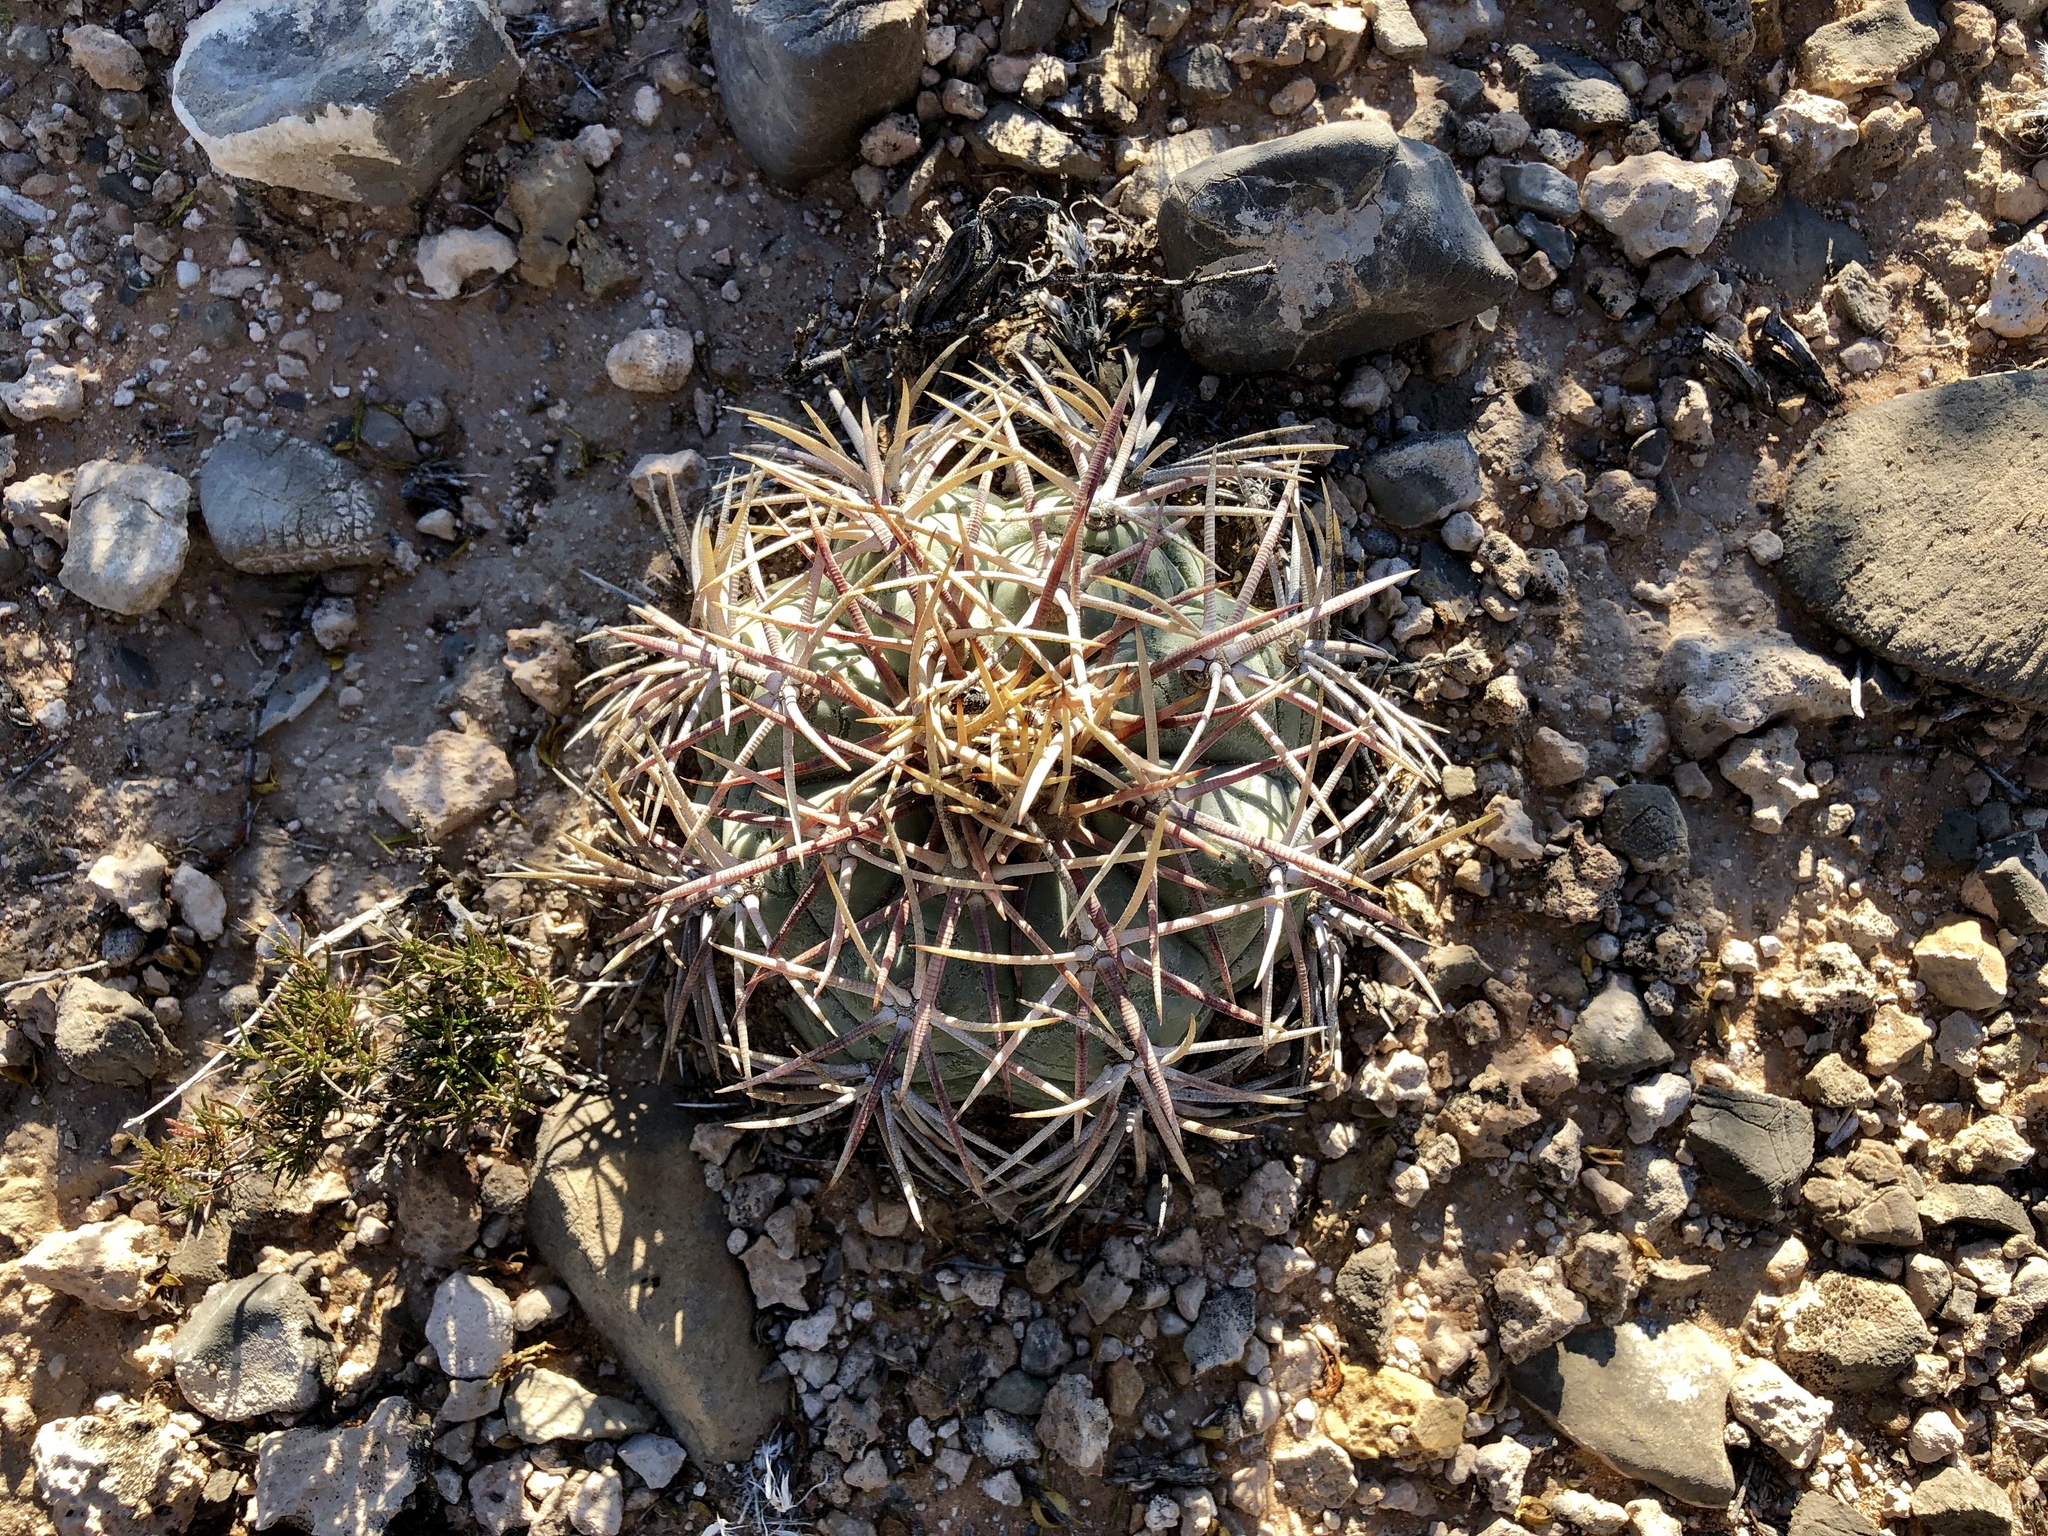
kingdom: Plantae
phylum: Tracheophyta
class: Magnoliopsida
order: Caryophyllales
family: Cactaceae
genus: Echinocactus
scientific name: Echinocactus horizonthalonius
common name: Devilshead
